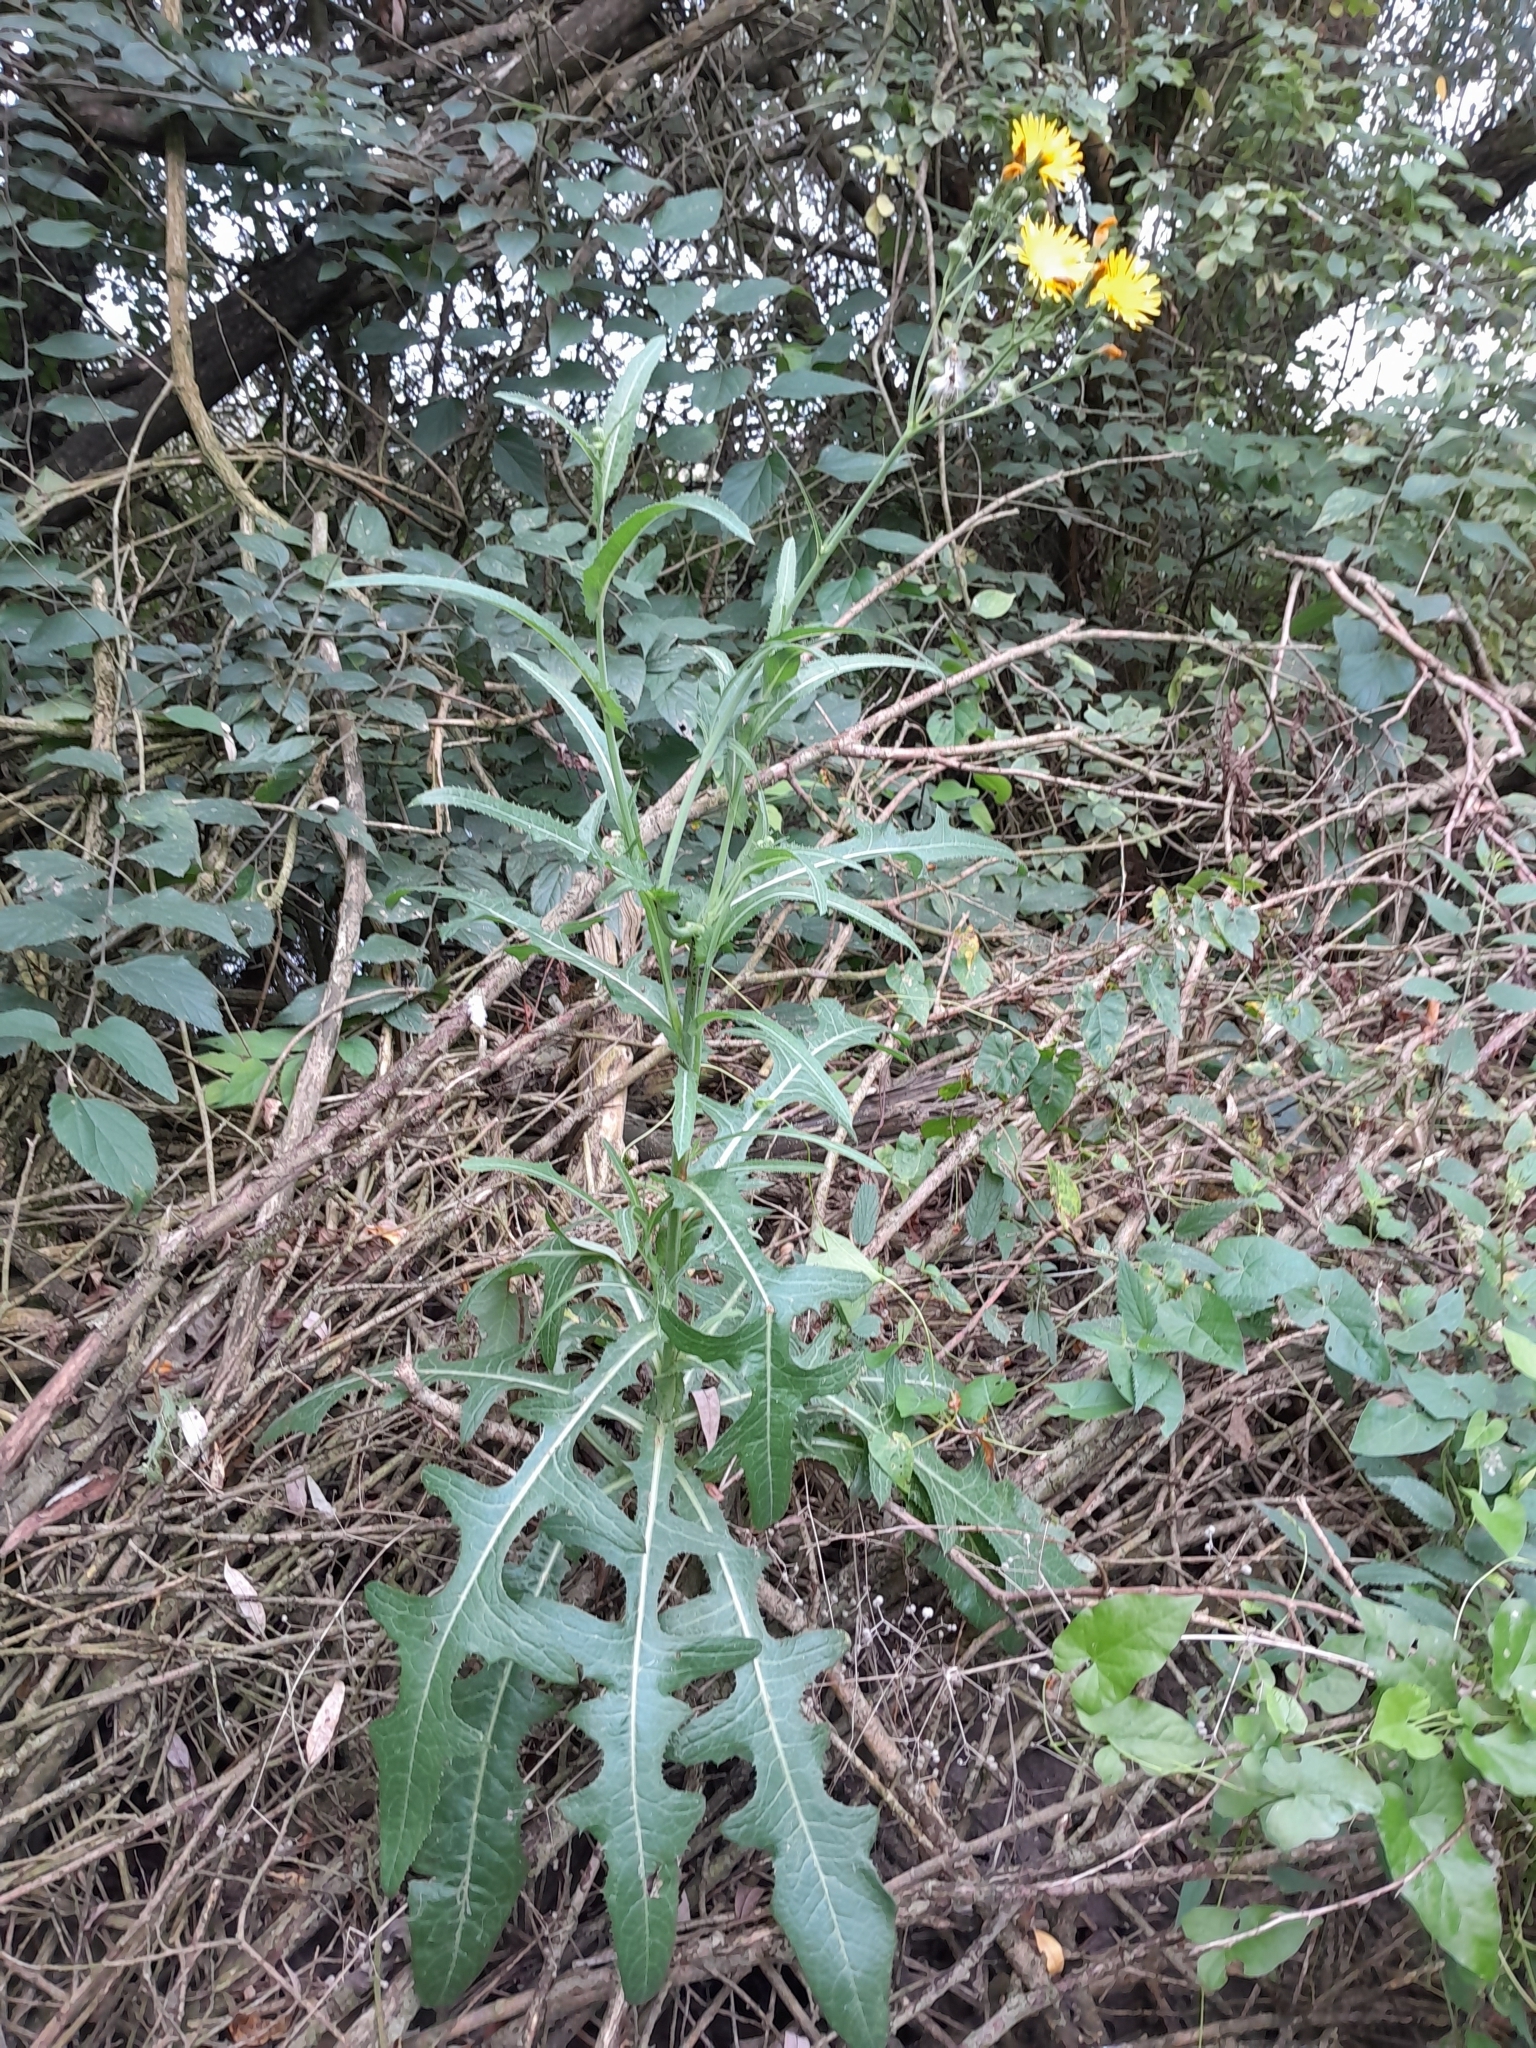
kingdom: Plantae
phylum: Tracheophyta
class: Magnoliopsida
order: Asterales
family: Asteraceae
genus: Sonchus
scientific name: Sonchus arvensis
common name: Perennial sow-thistle
